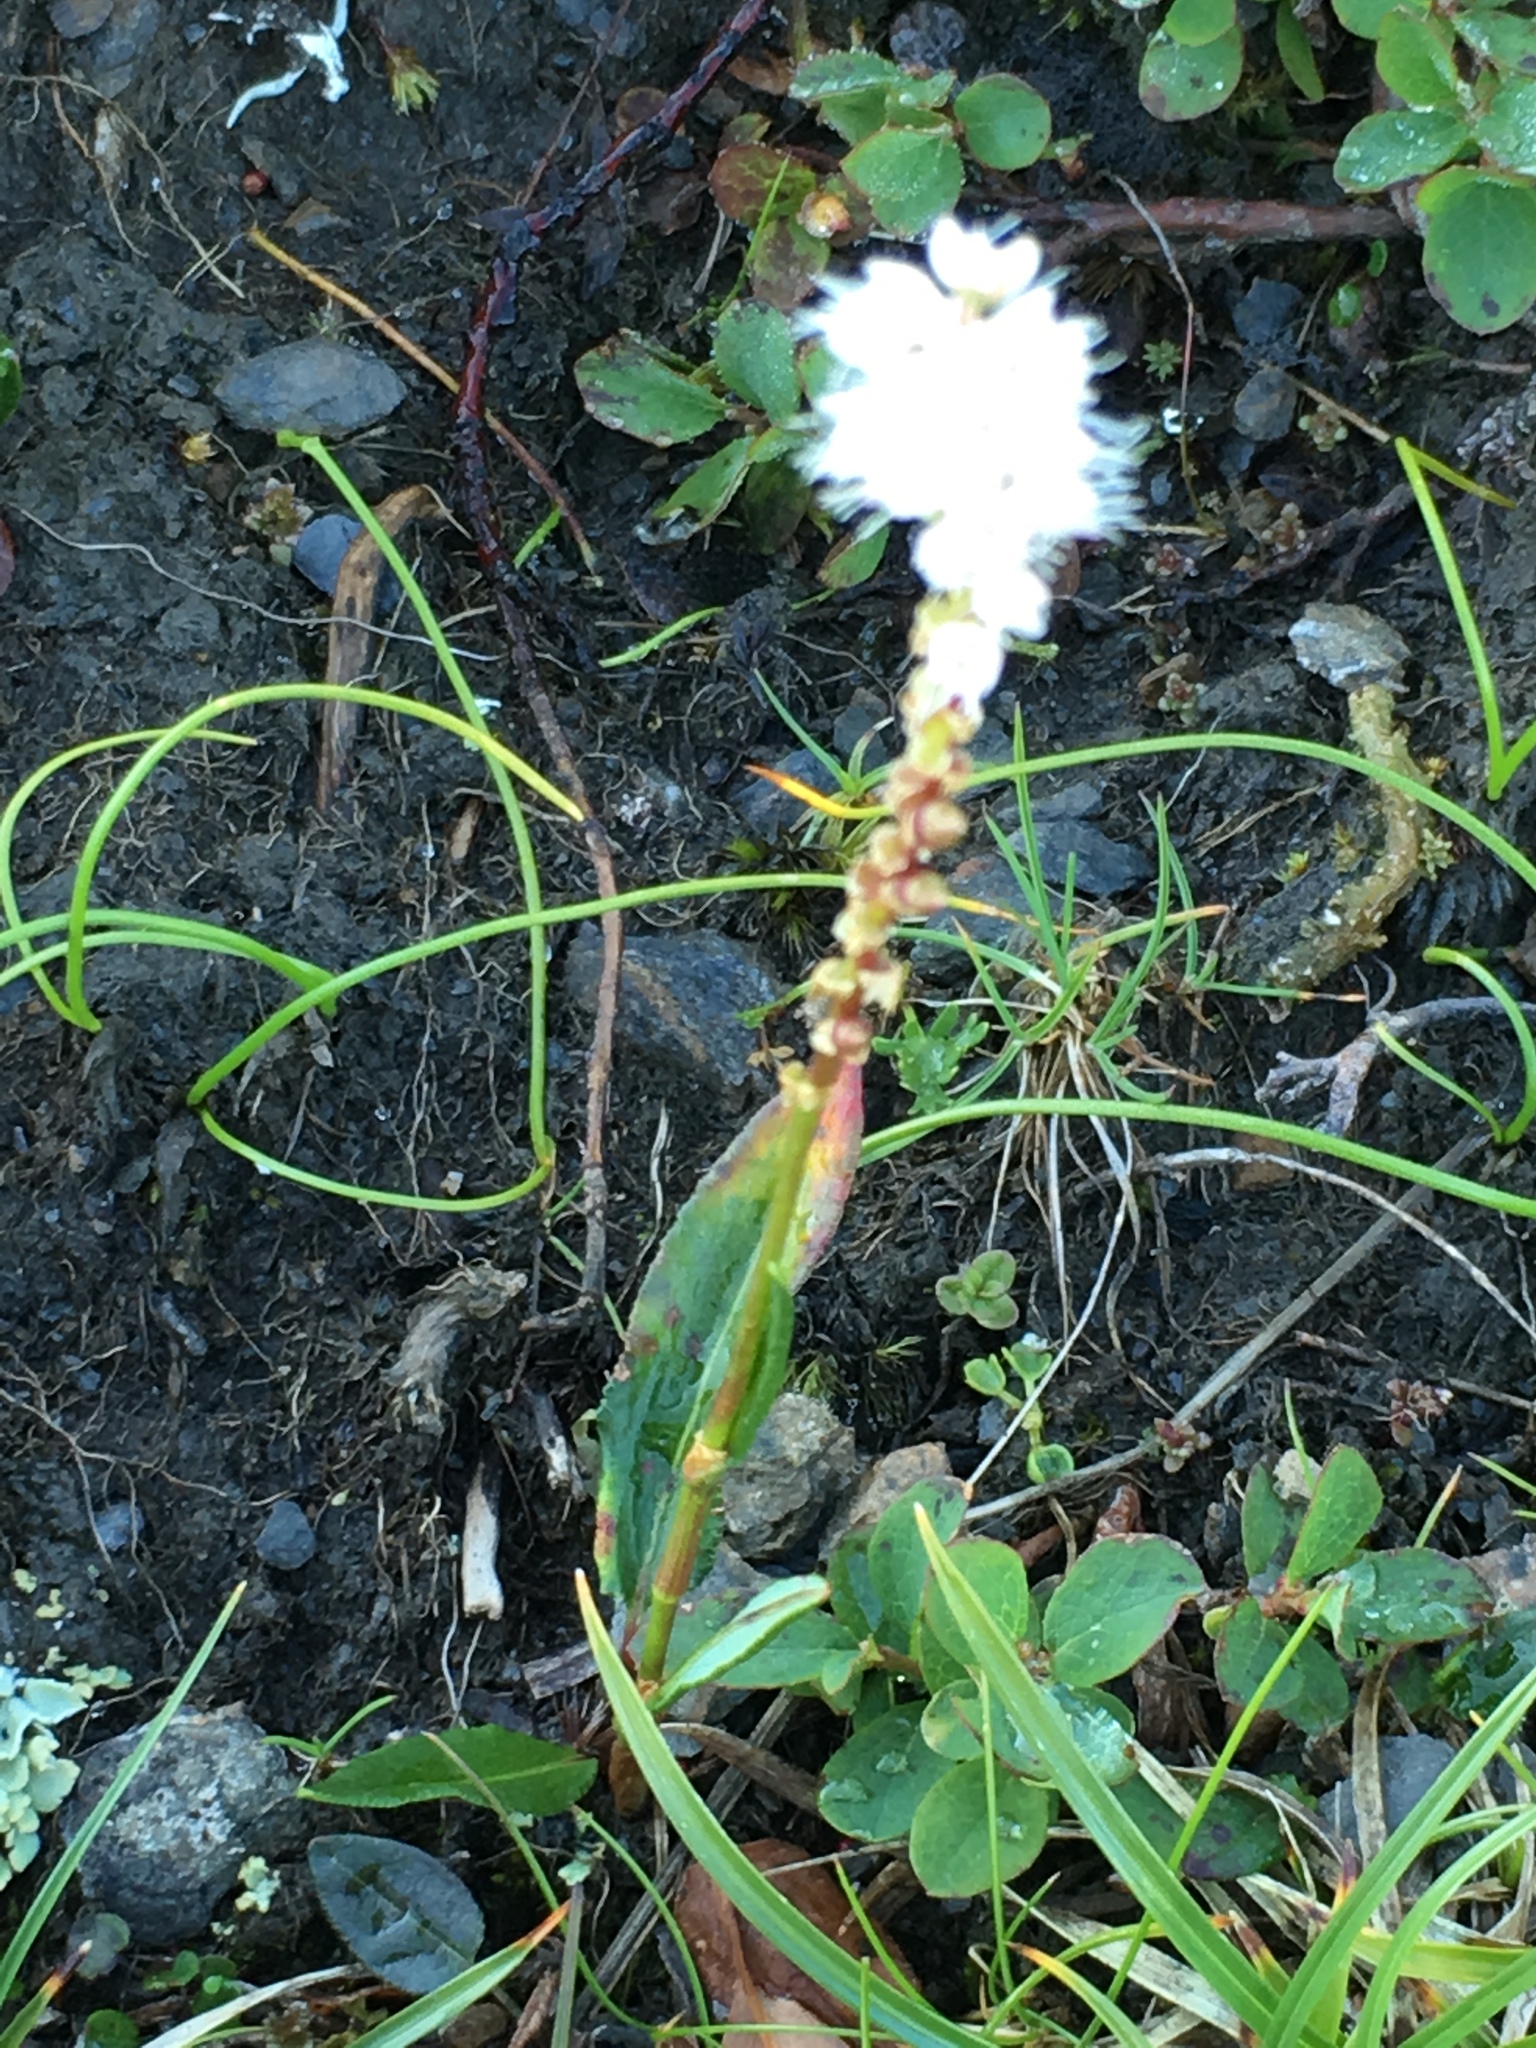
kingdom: Plantae
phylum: Tracheophyta
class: Magnoliopsida
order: Caryophyllales
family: Polygonaceae
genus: Bistorta
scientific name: Bistorta vivipara
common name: Alpine bistort
